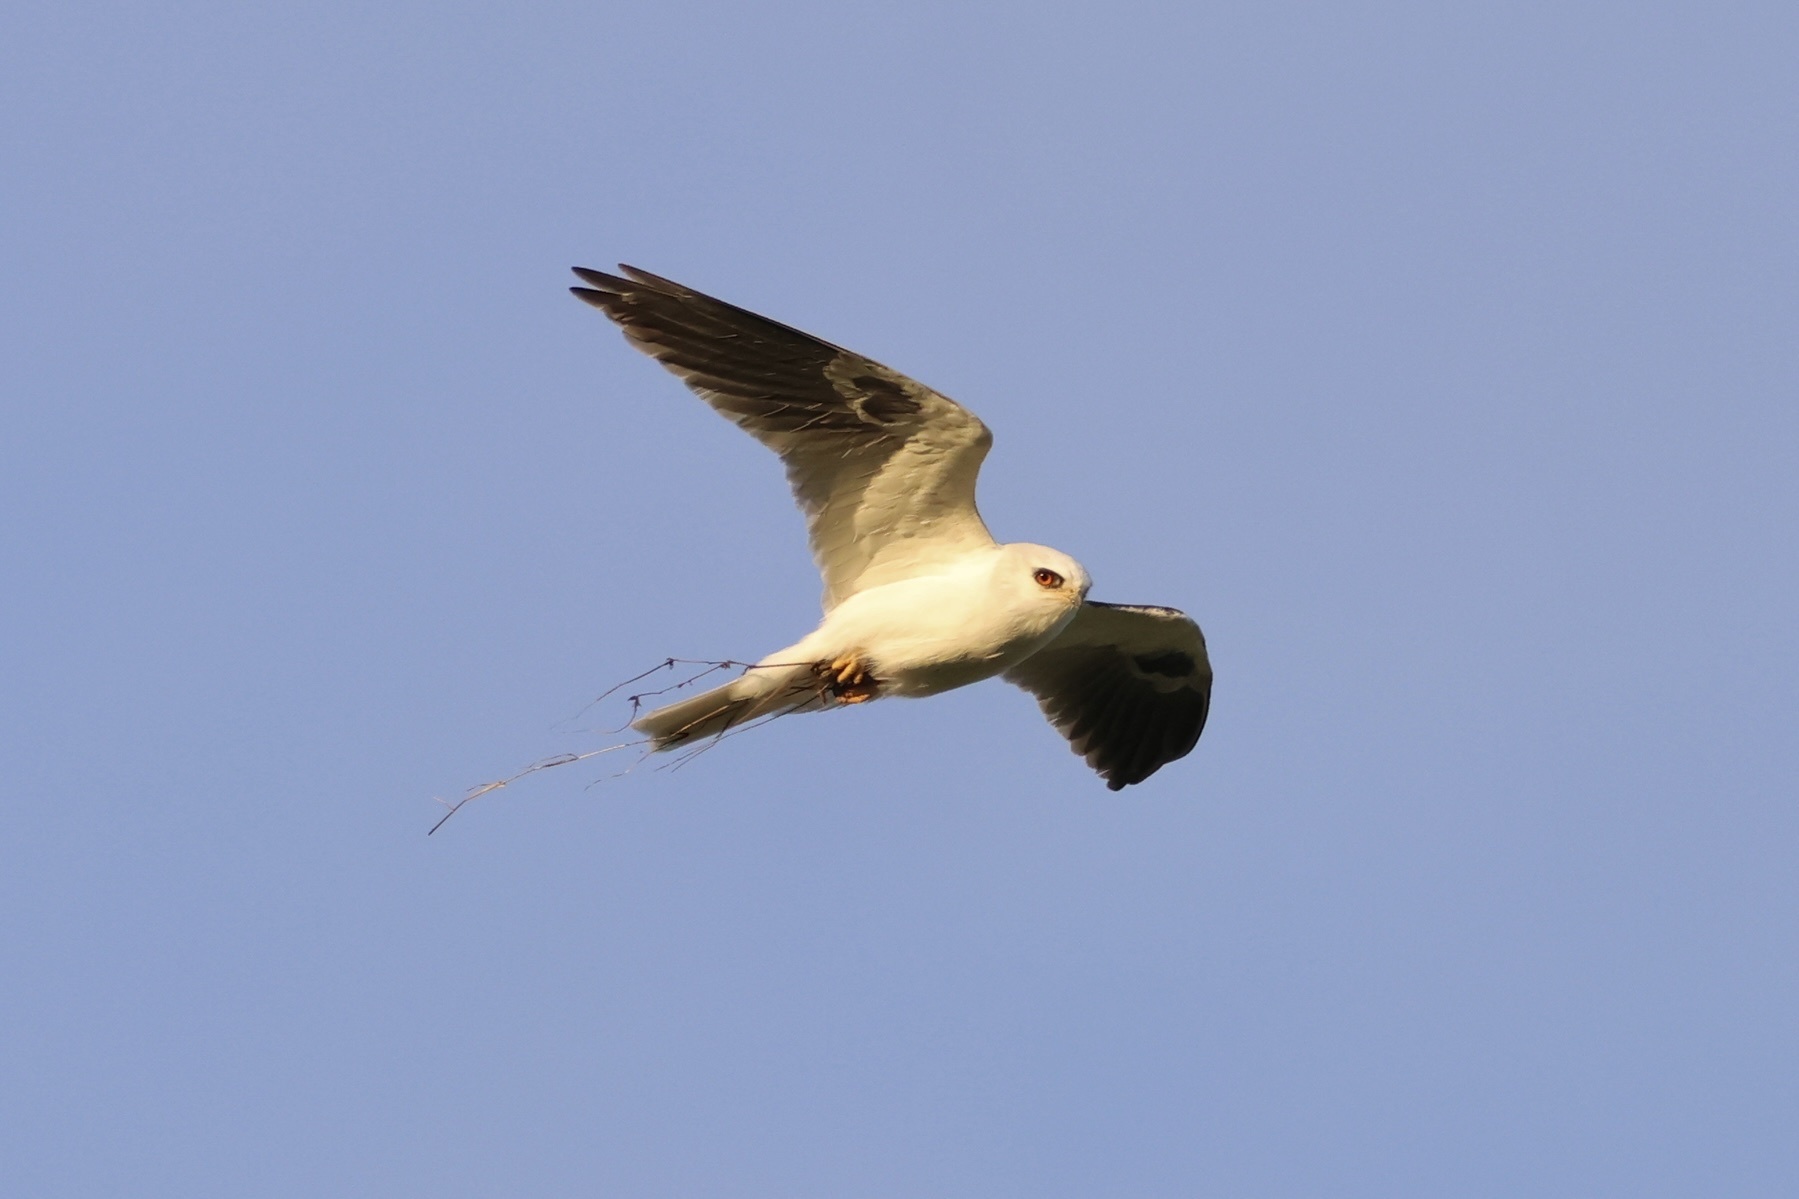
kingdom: Animalia
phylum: Chordata
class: Aves
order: Accipitriformes
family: Accipitridae
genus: Elanus
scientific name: Elanus leucurus
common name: White-tailed kite
